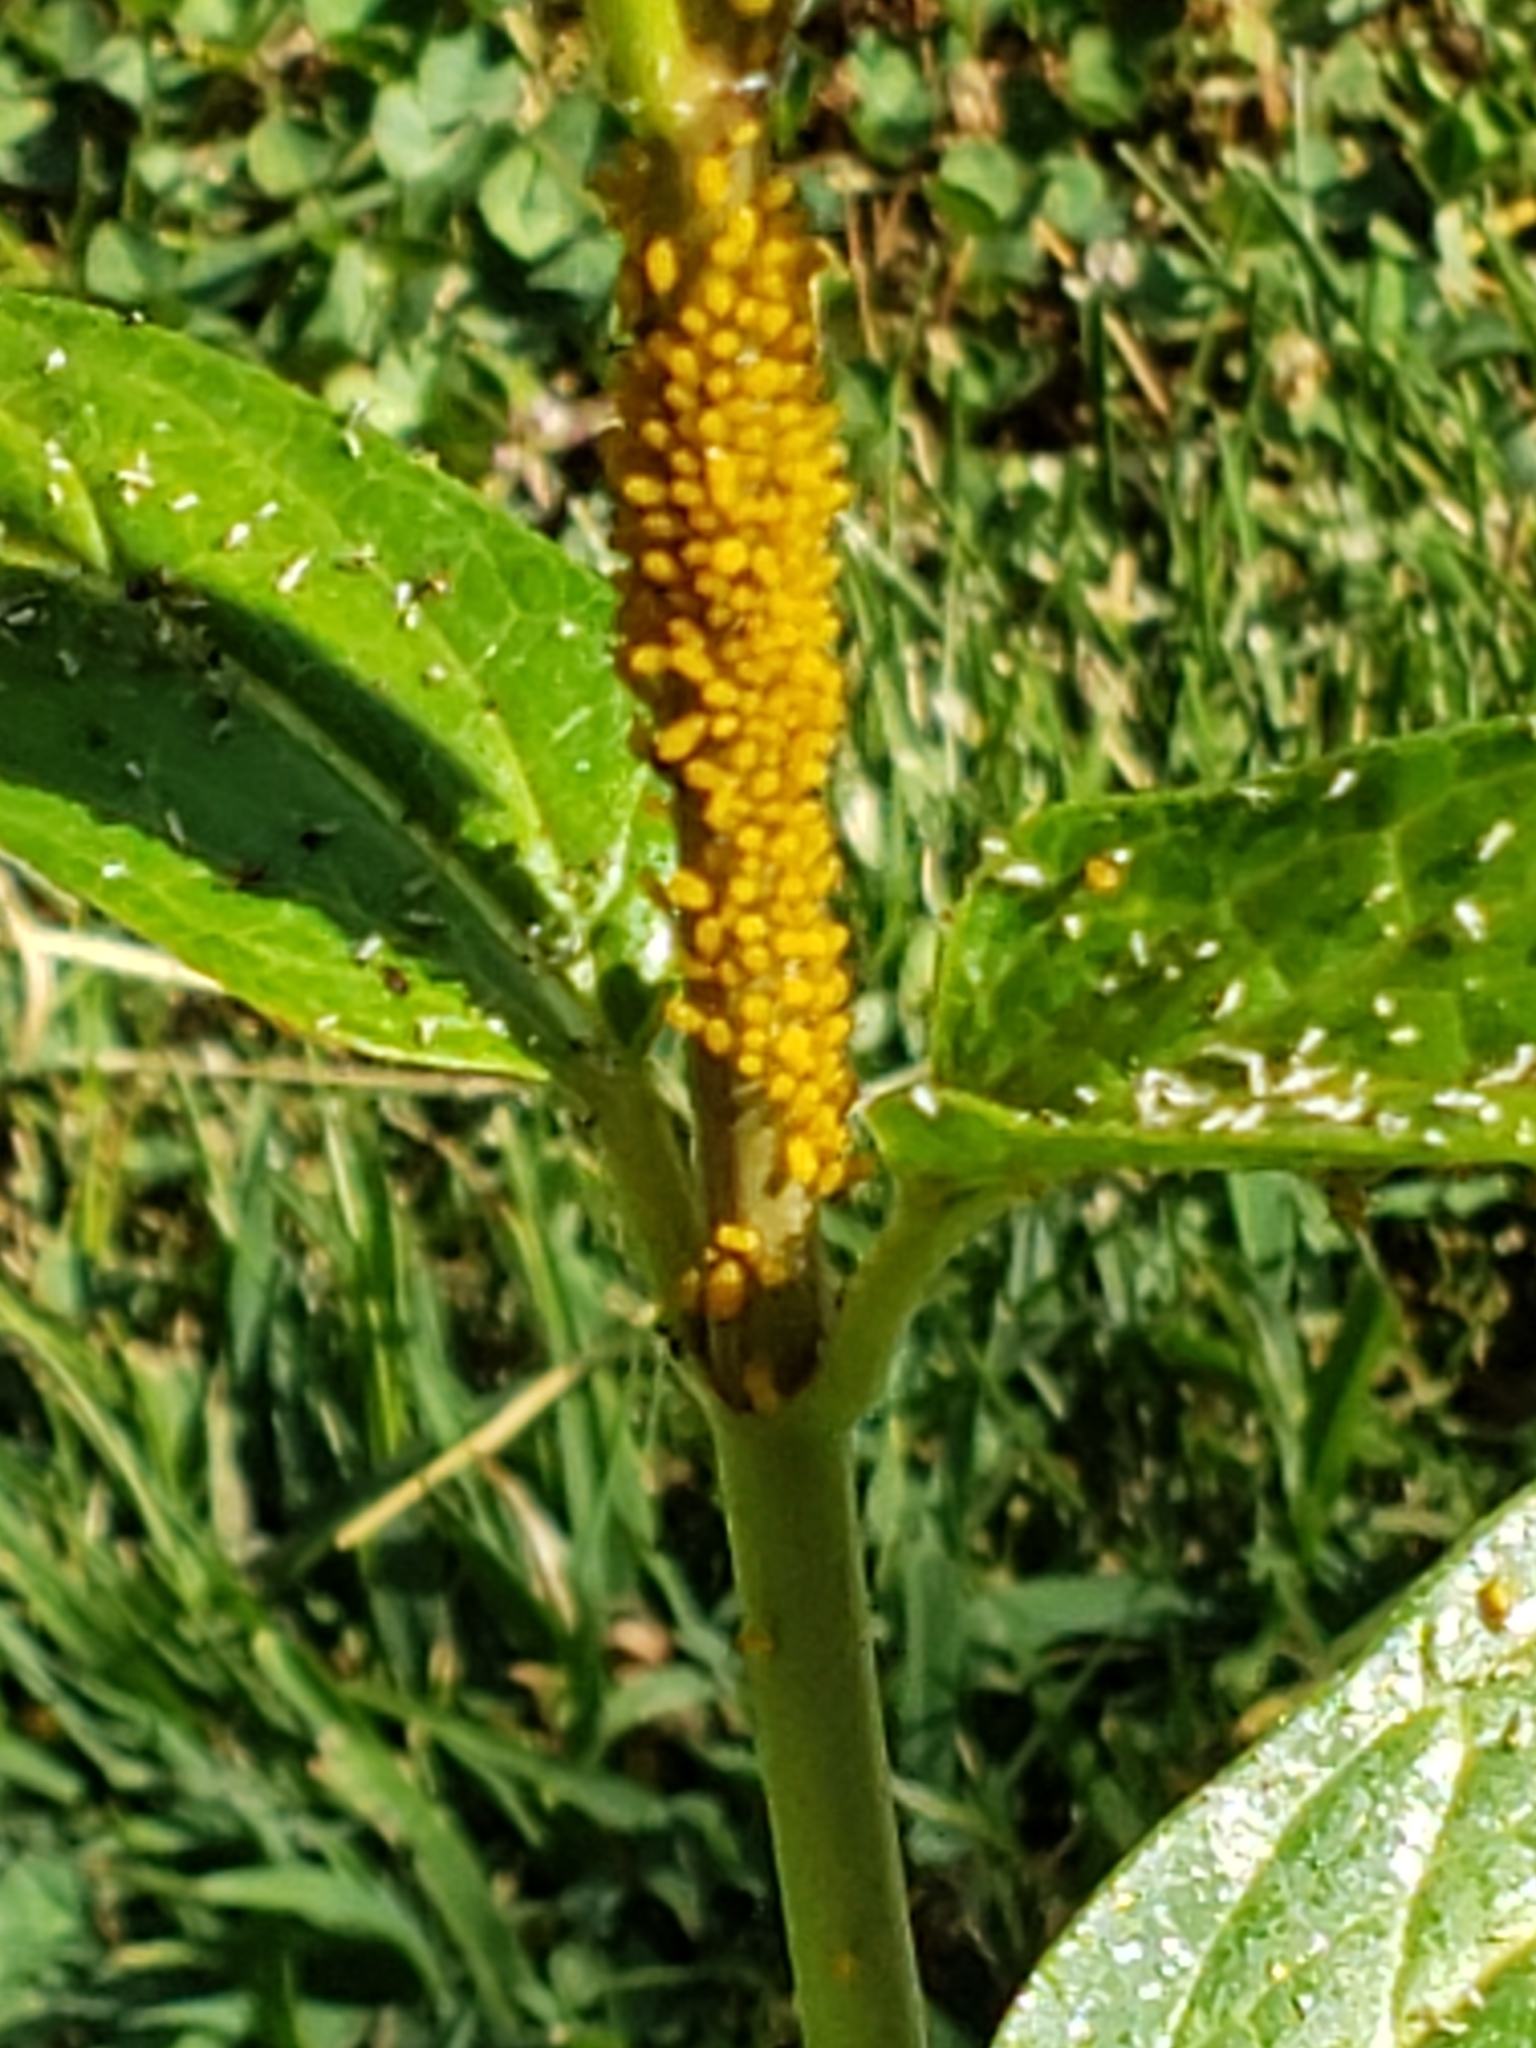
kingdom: Animalia
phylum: Arthropoda
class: Insecta
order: Hemiptera
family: Aphididae
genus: Aphis
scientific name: Aphis nerii
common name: Oleander aphid
